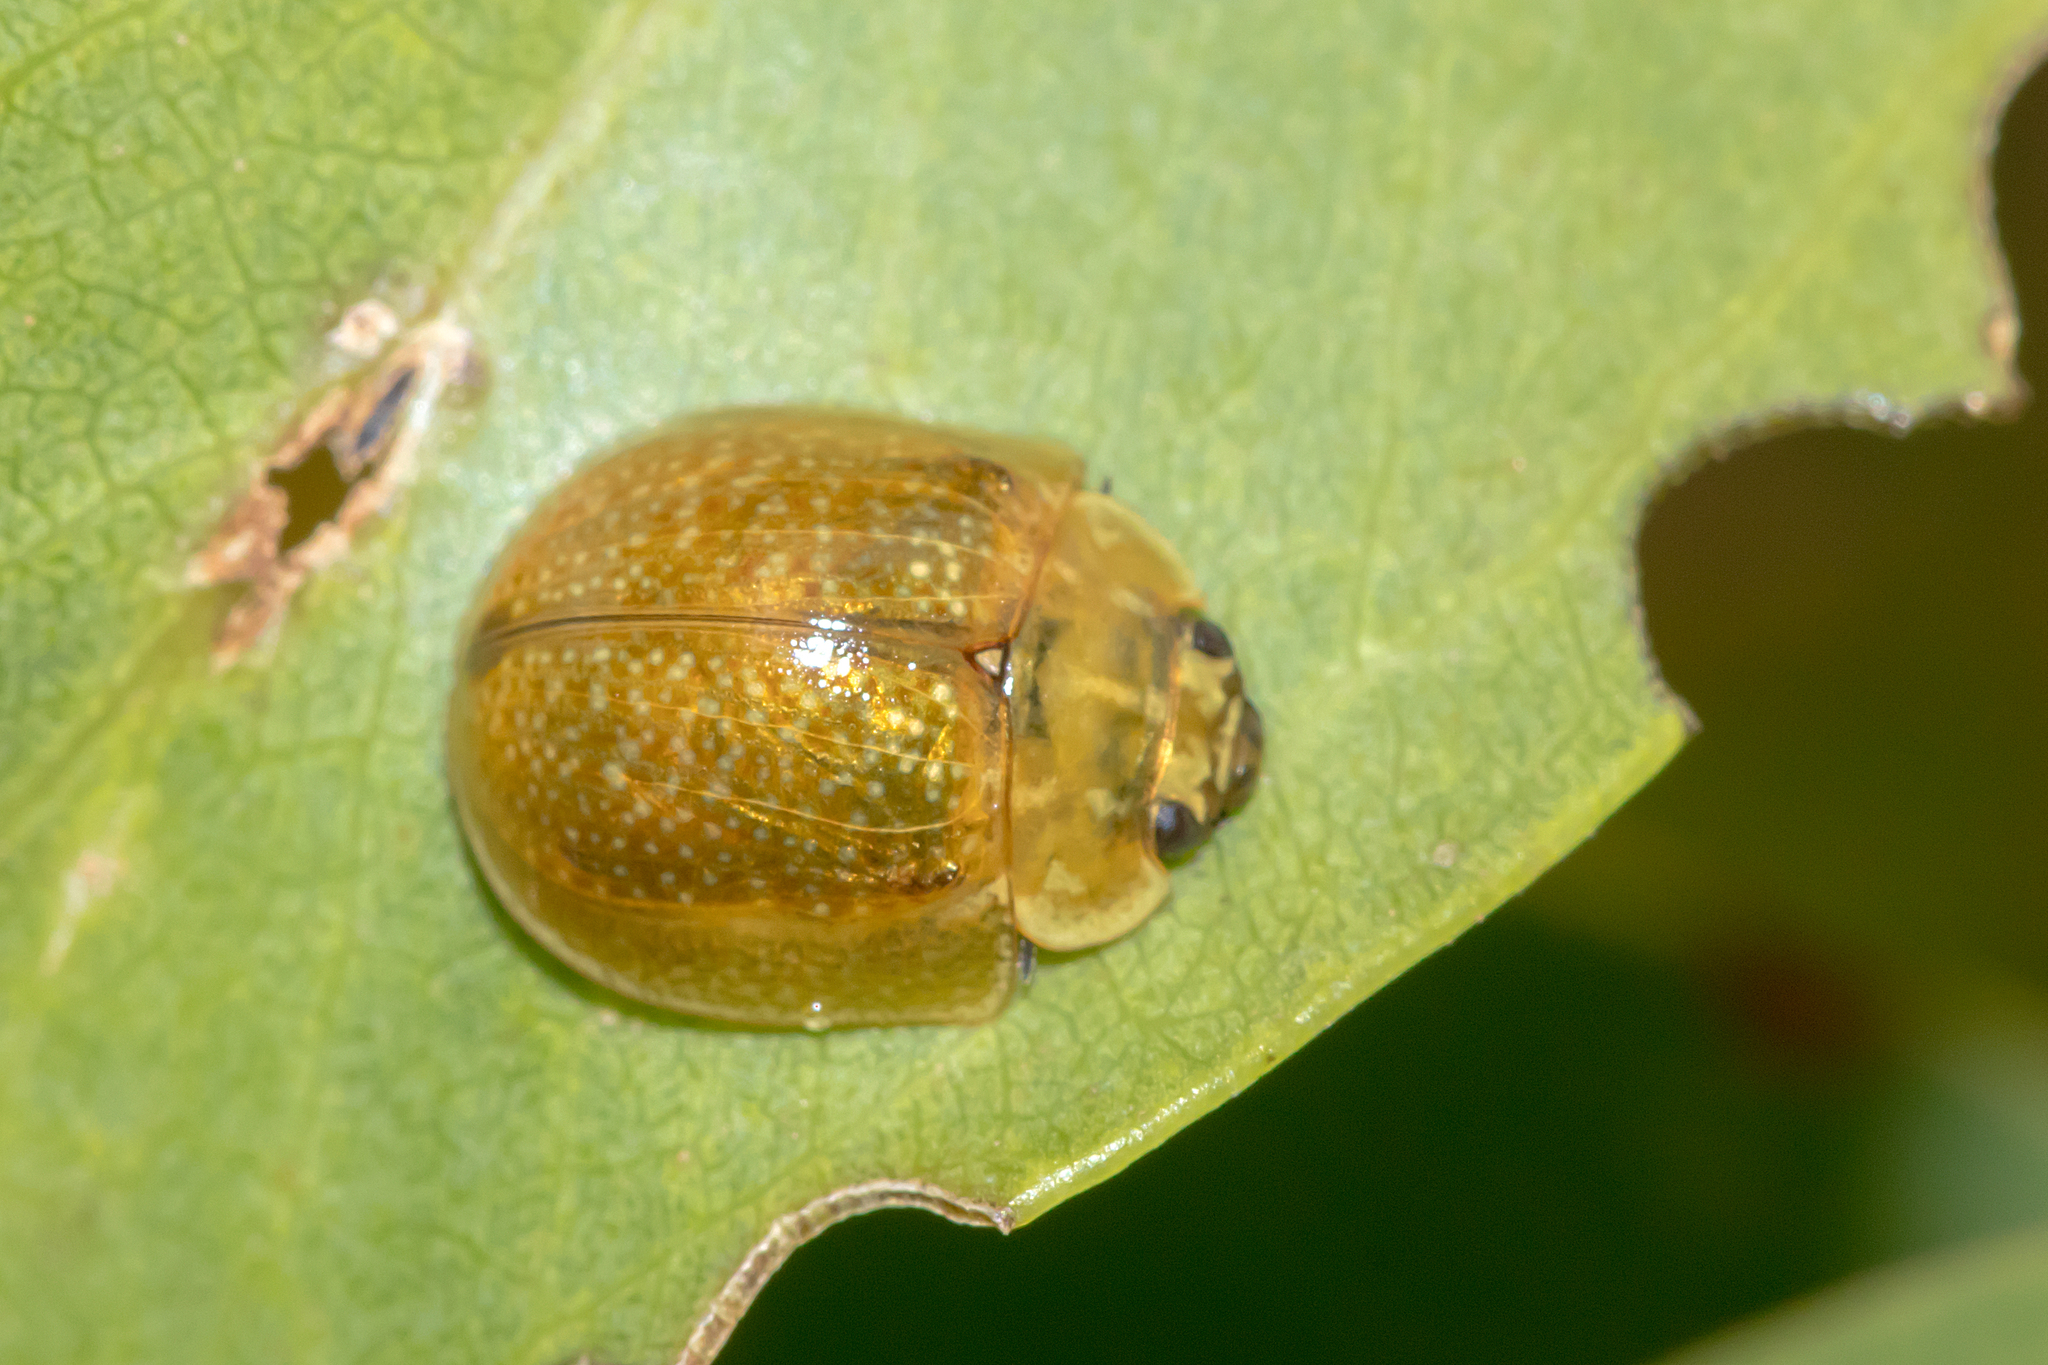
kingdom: Animalia
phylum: Arthropoda
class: Insecta
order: Coleoptera
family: Chrysomelidae
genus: Paropsisterna
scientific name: Paropsisterna cloelia
